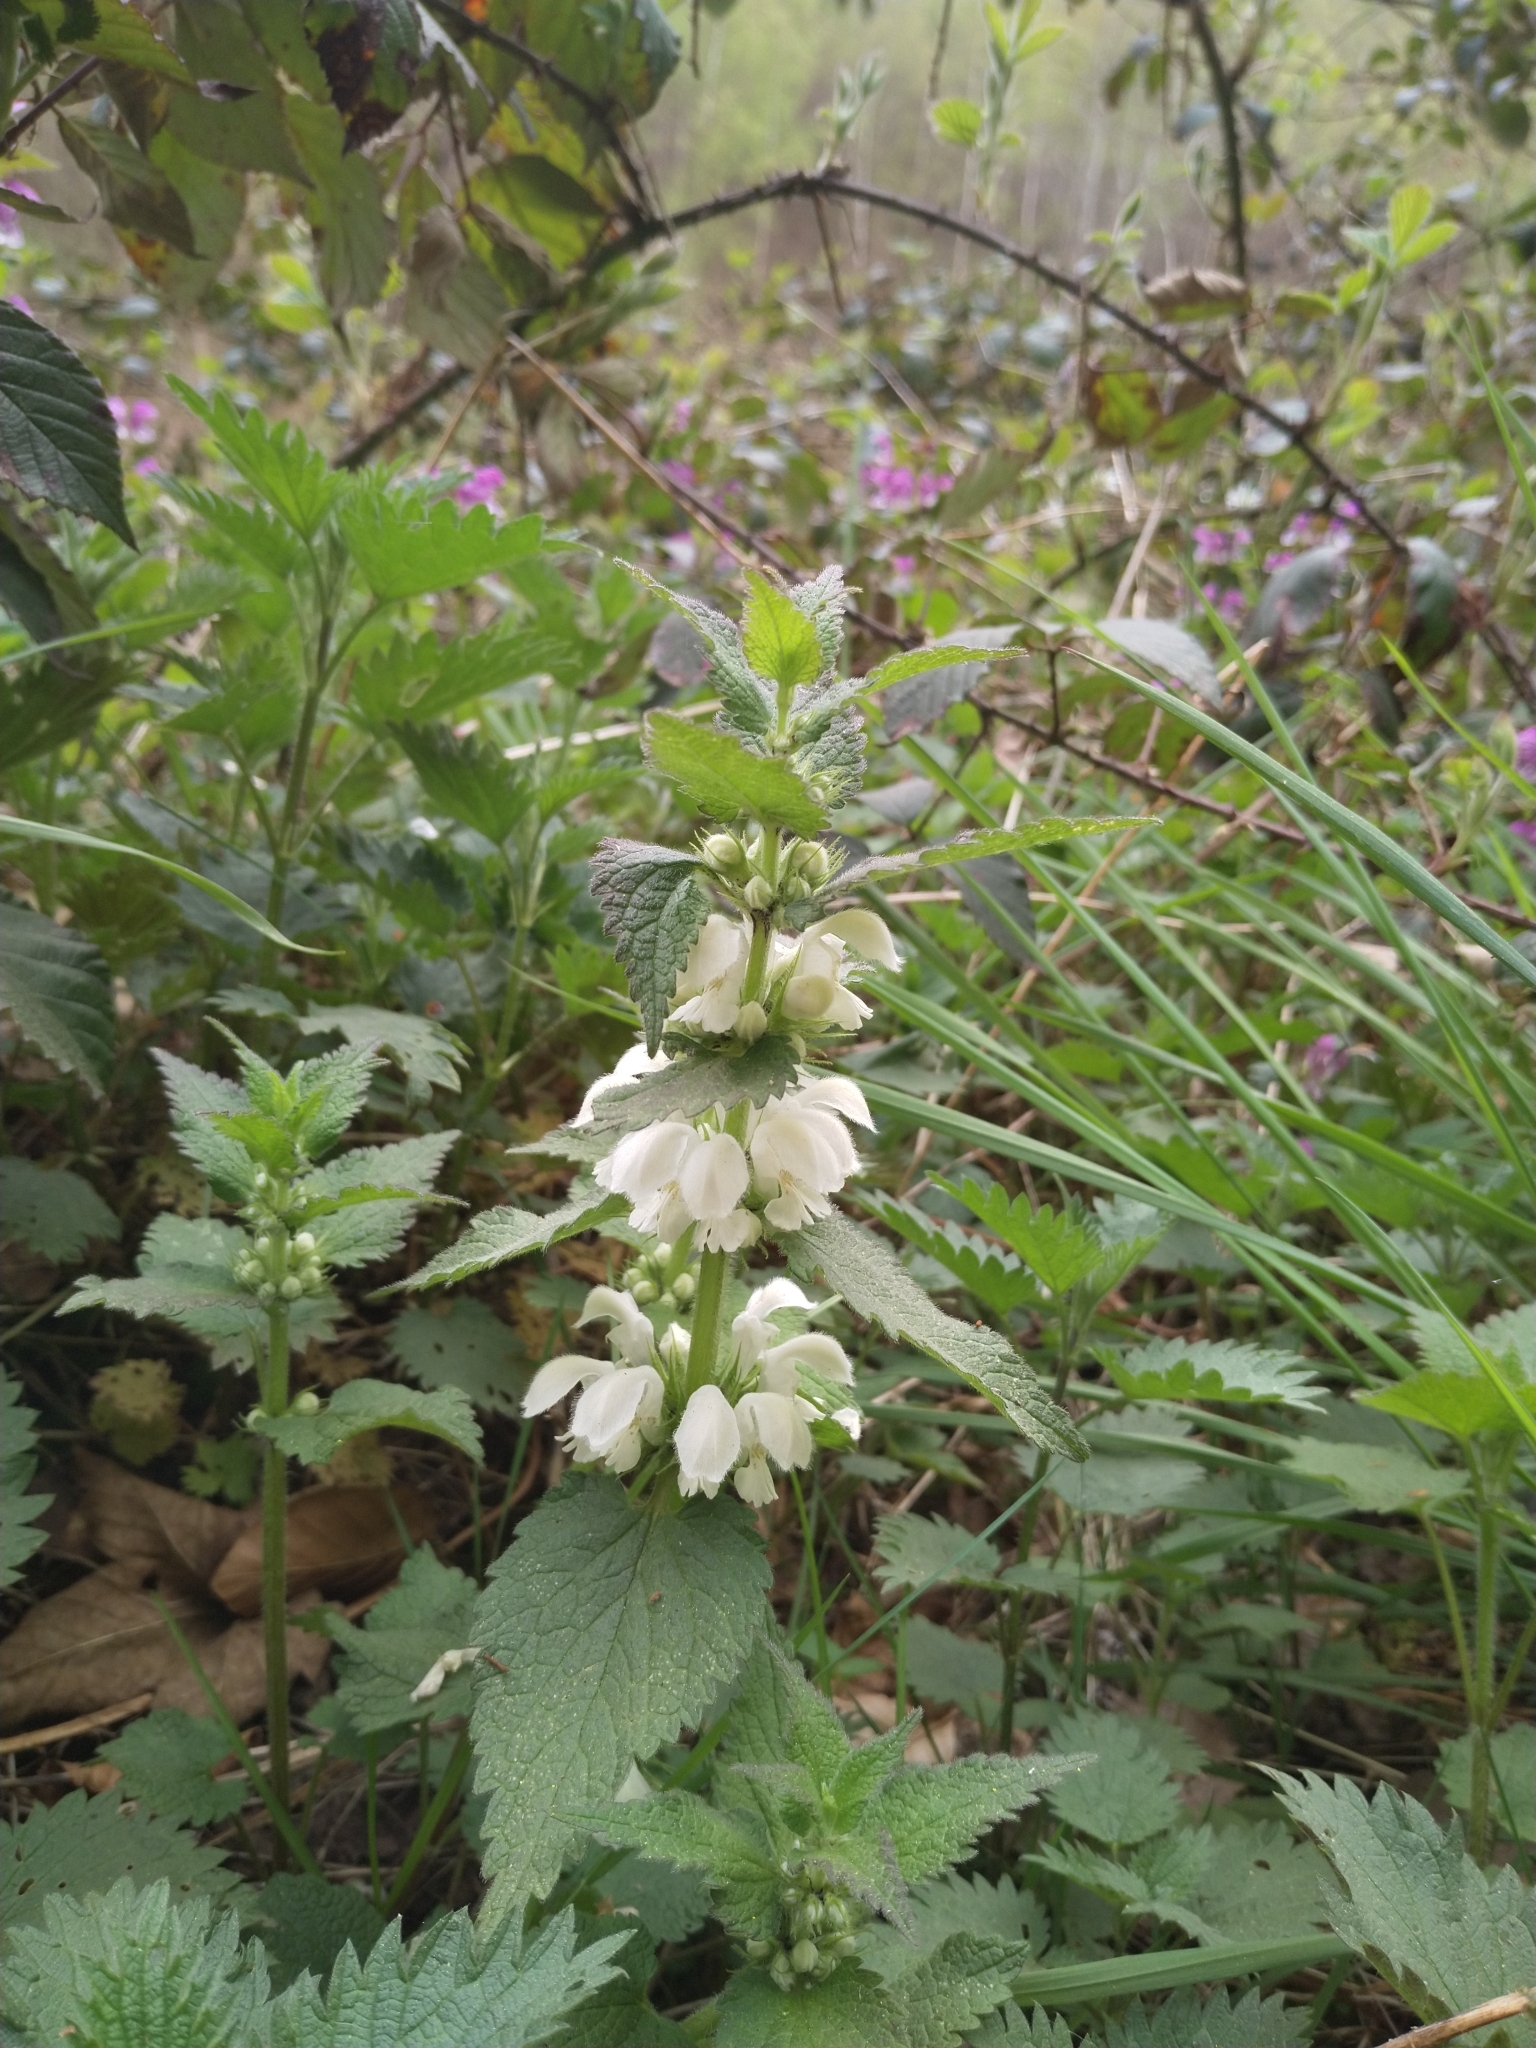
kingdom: Plantae
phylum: Tracheophyta
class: Magnoliopsida
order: Lamiales
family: Lamiaceae
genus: Lamium
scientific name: Lamium album
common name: White dead-nettle
